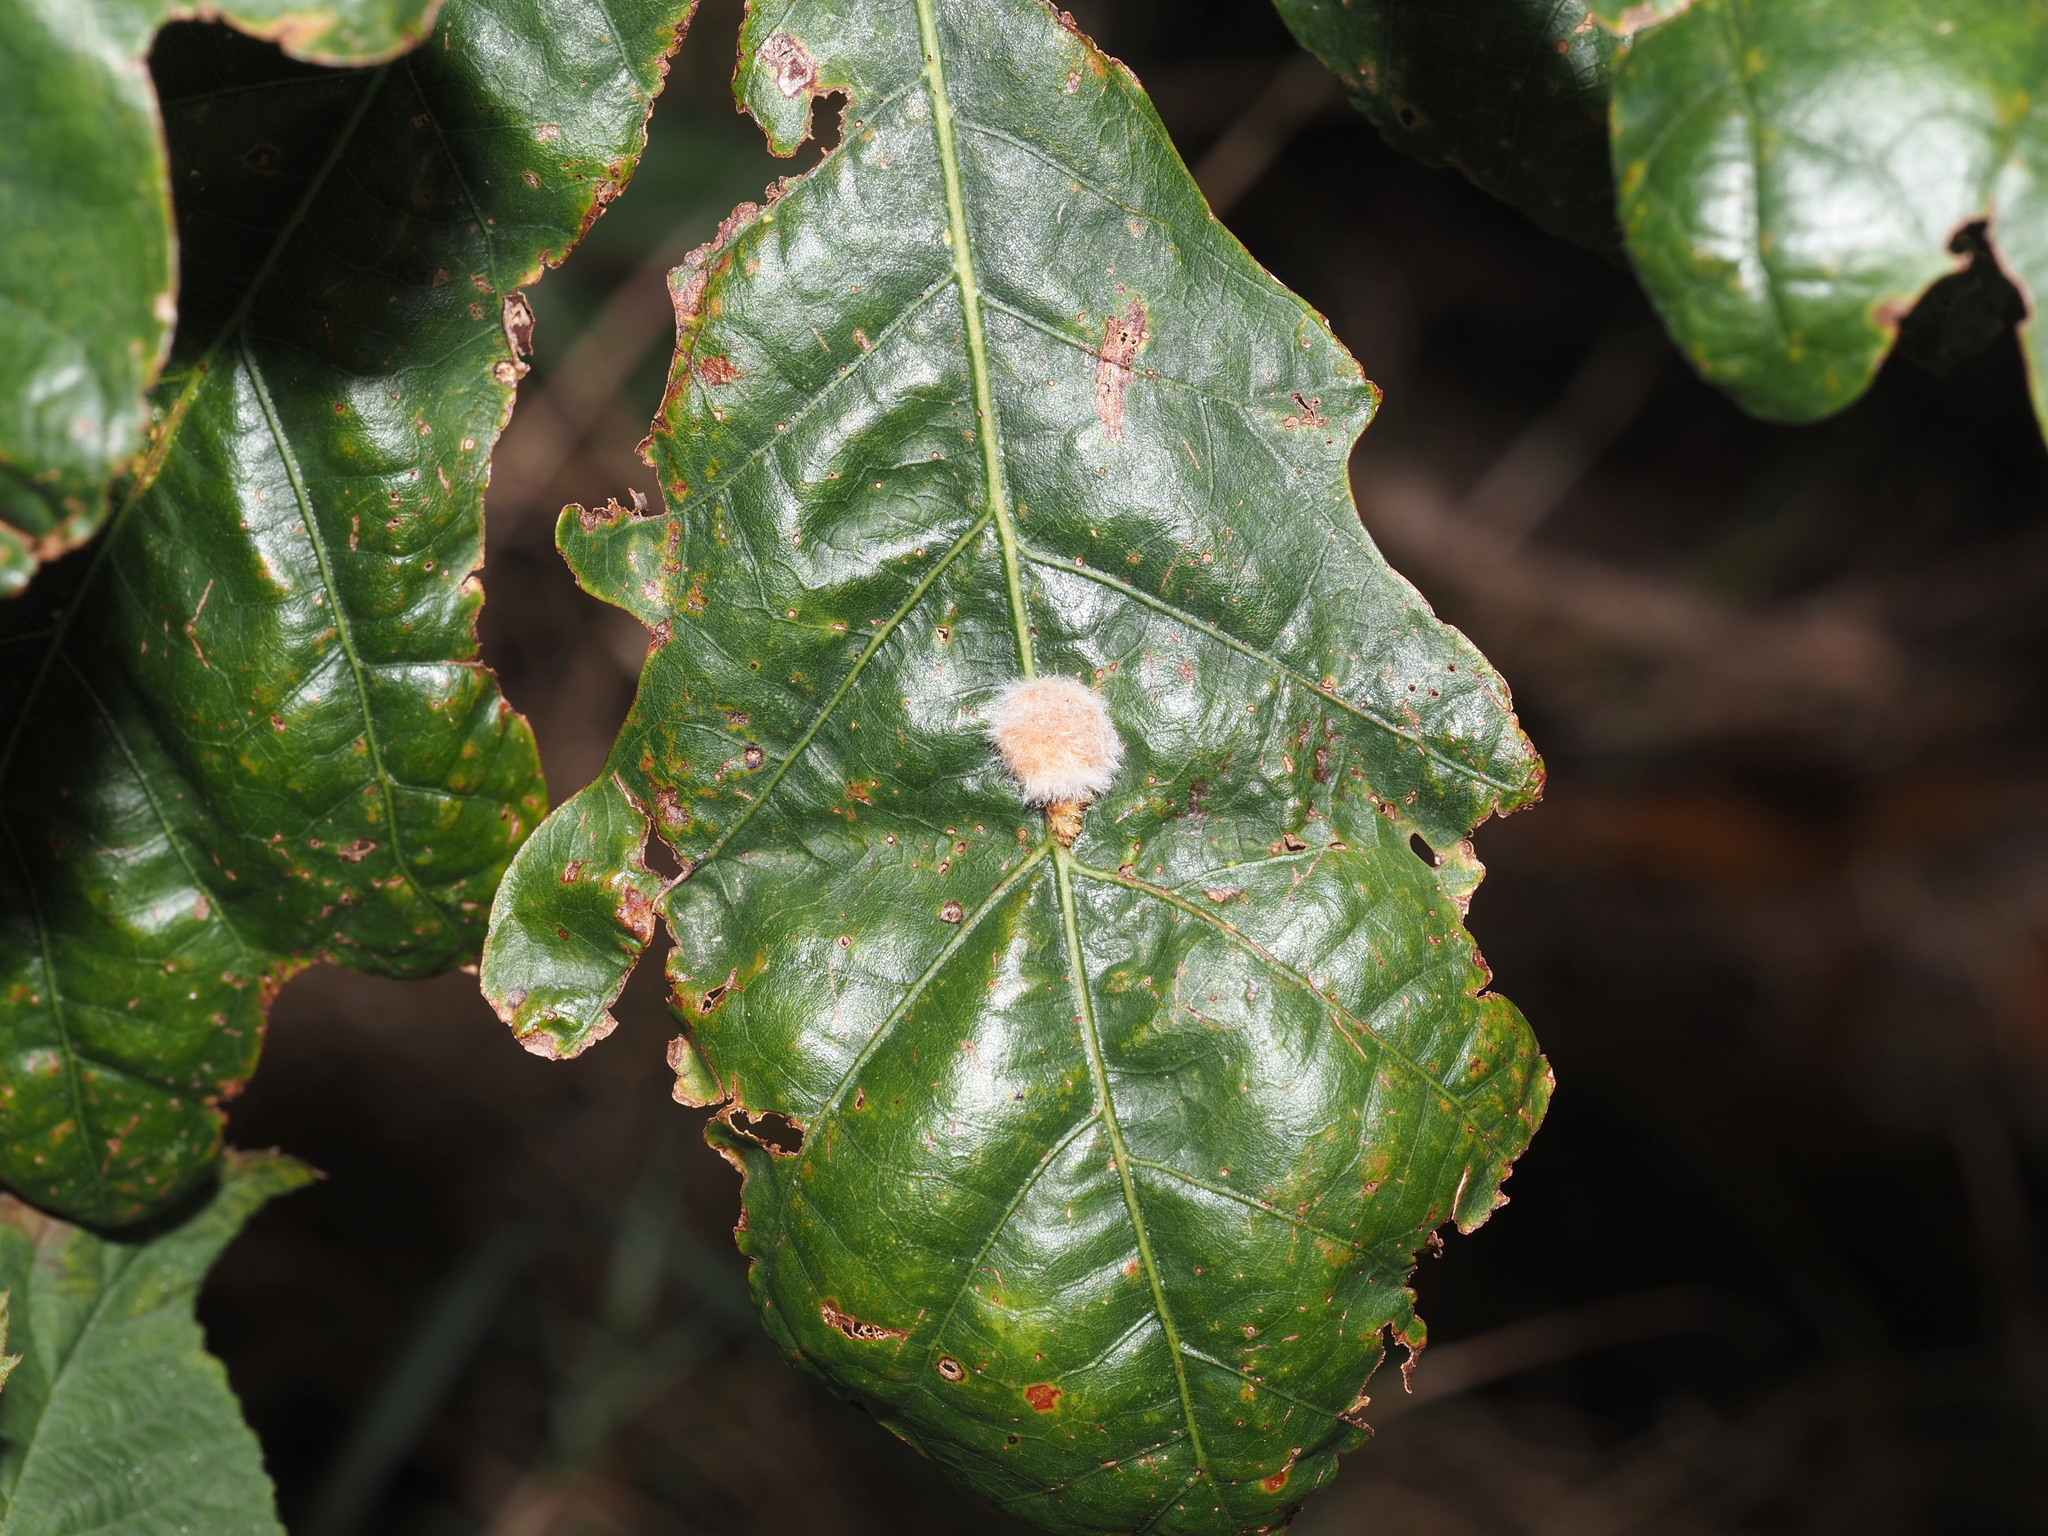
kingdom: Animalia
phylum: Arthropoda
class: Insecta
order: Hymenoptera
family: Cynipidae
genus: Andricus
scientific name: Andricus quercusflocci
